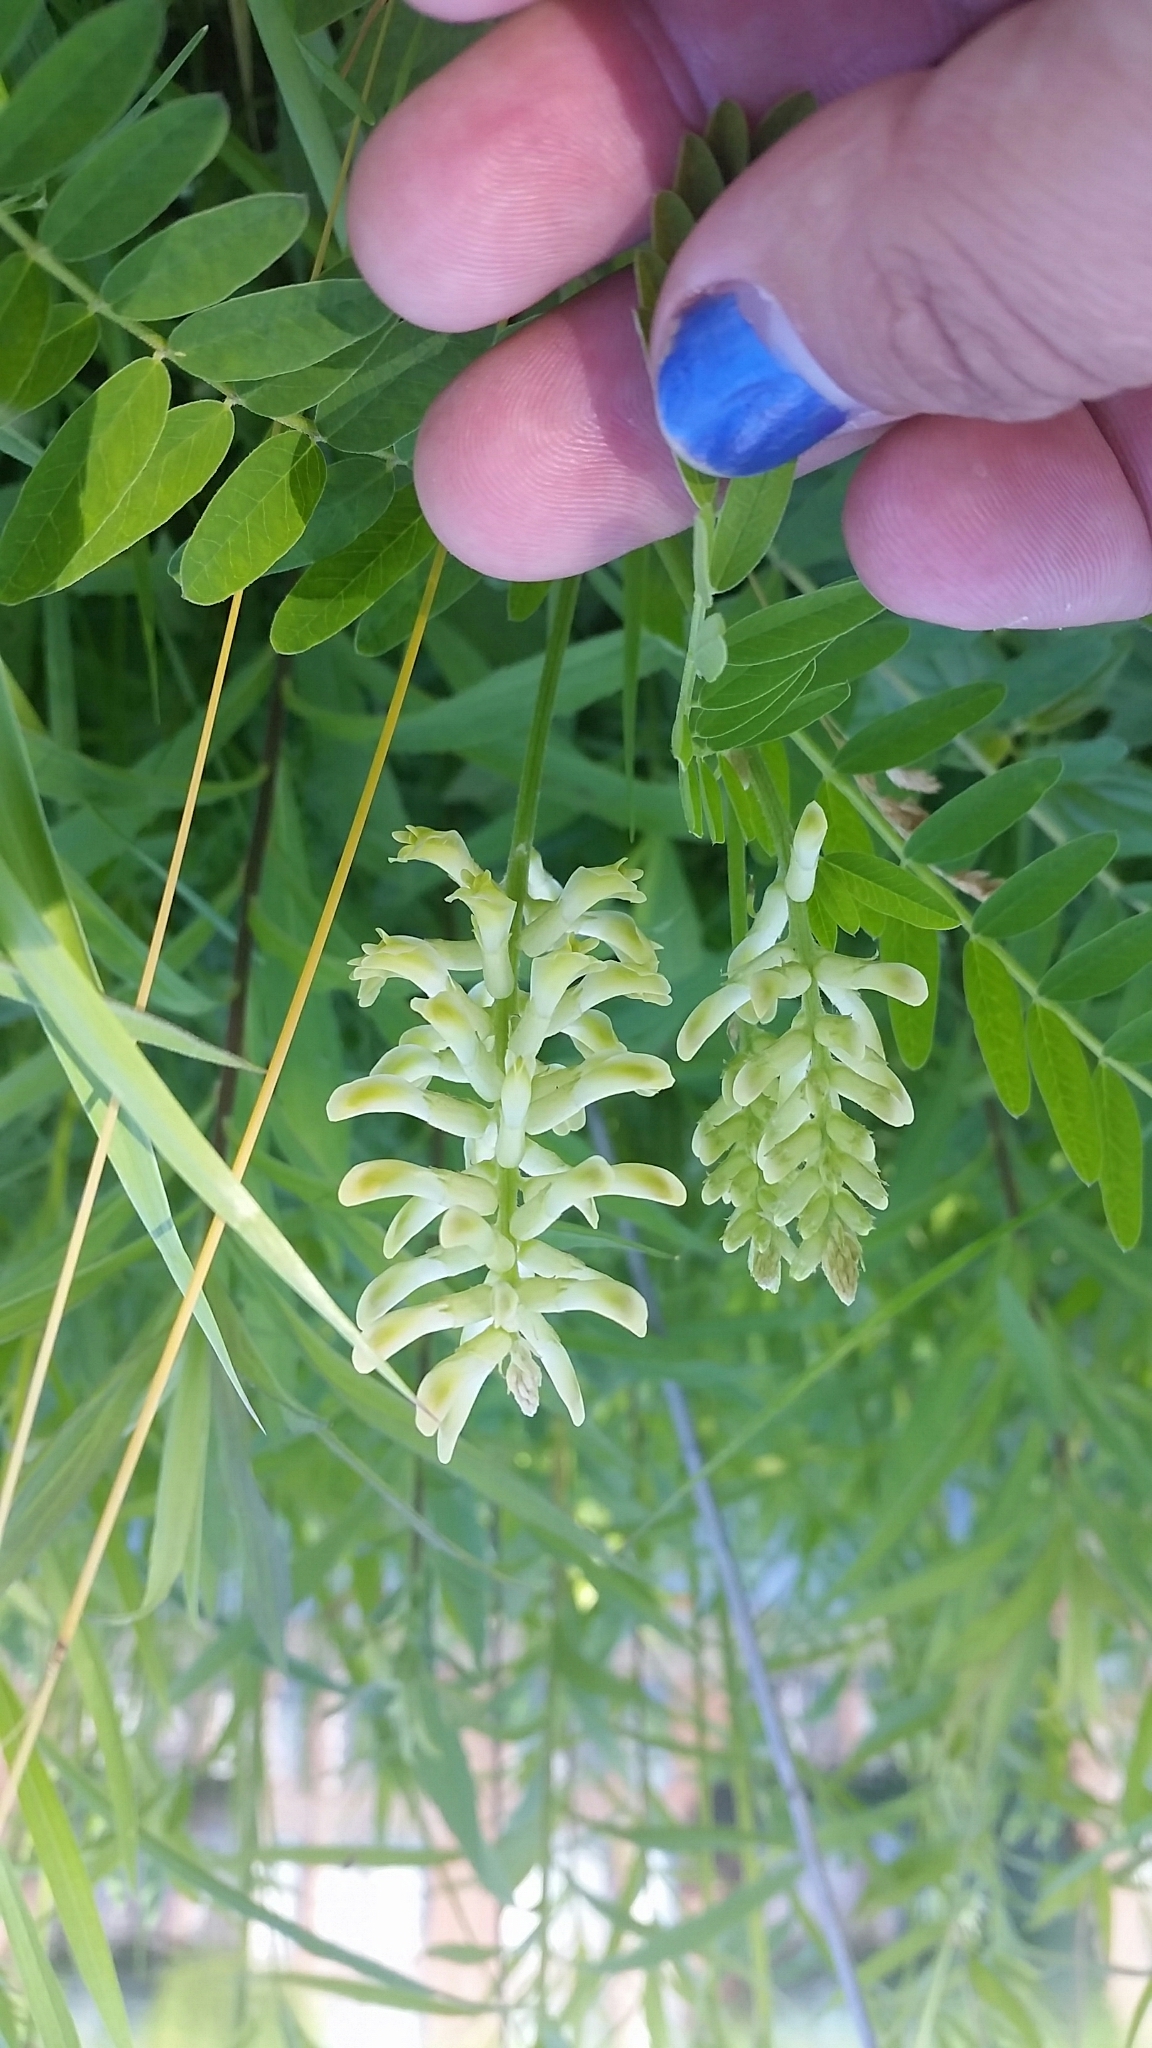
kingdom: Plantae
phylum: Tracheophyta
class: Magnoliopsida
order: Fabales
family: Fabaceae
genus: Astragalus
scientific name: Astragalus canadensis
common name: Canada milk-vetch
